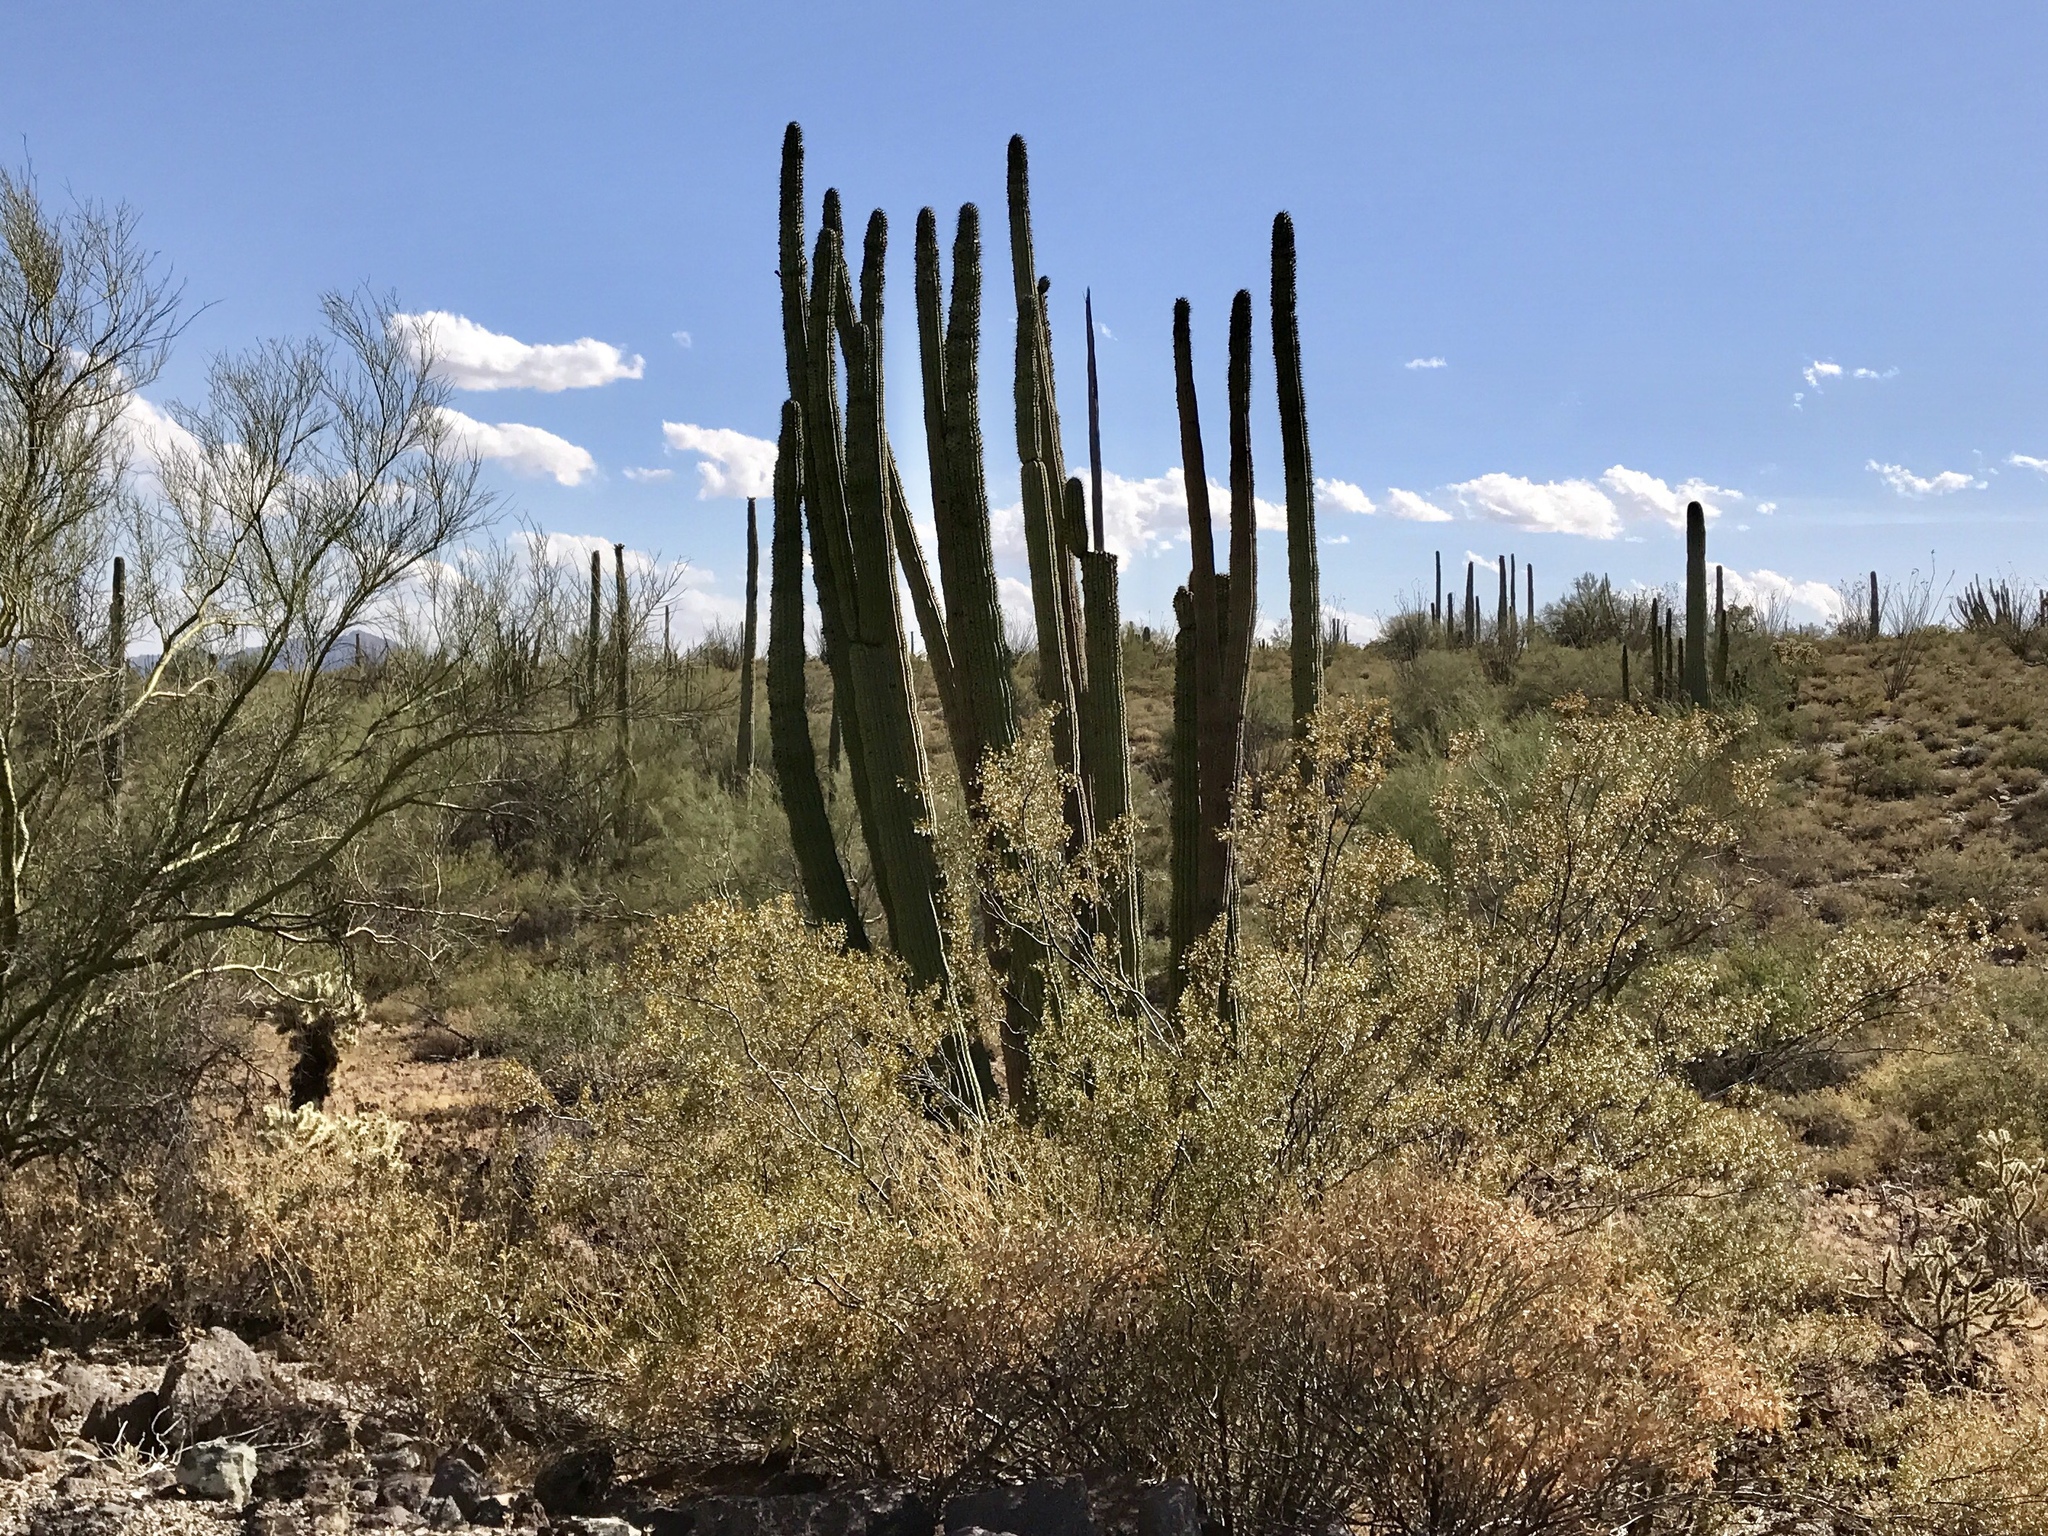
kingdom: Plantae
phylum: Tracheophyta
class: Magnoliopsida
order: Caryophyllales
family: Cactaceae
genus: Stenocereus
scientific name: Stenocereus thurberi
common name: Organ pipe cactus
